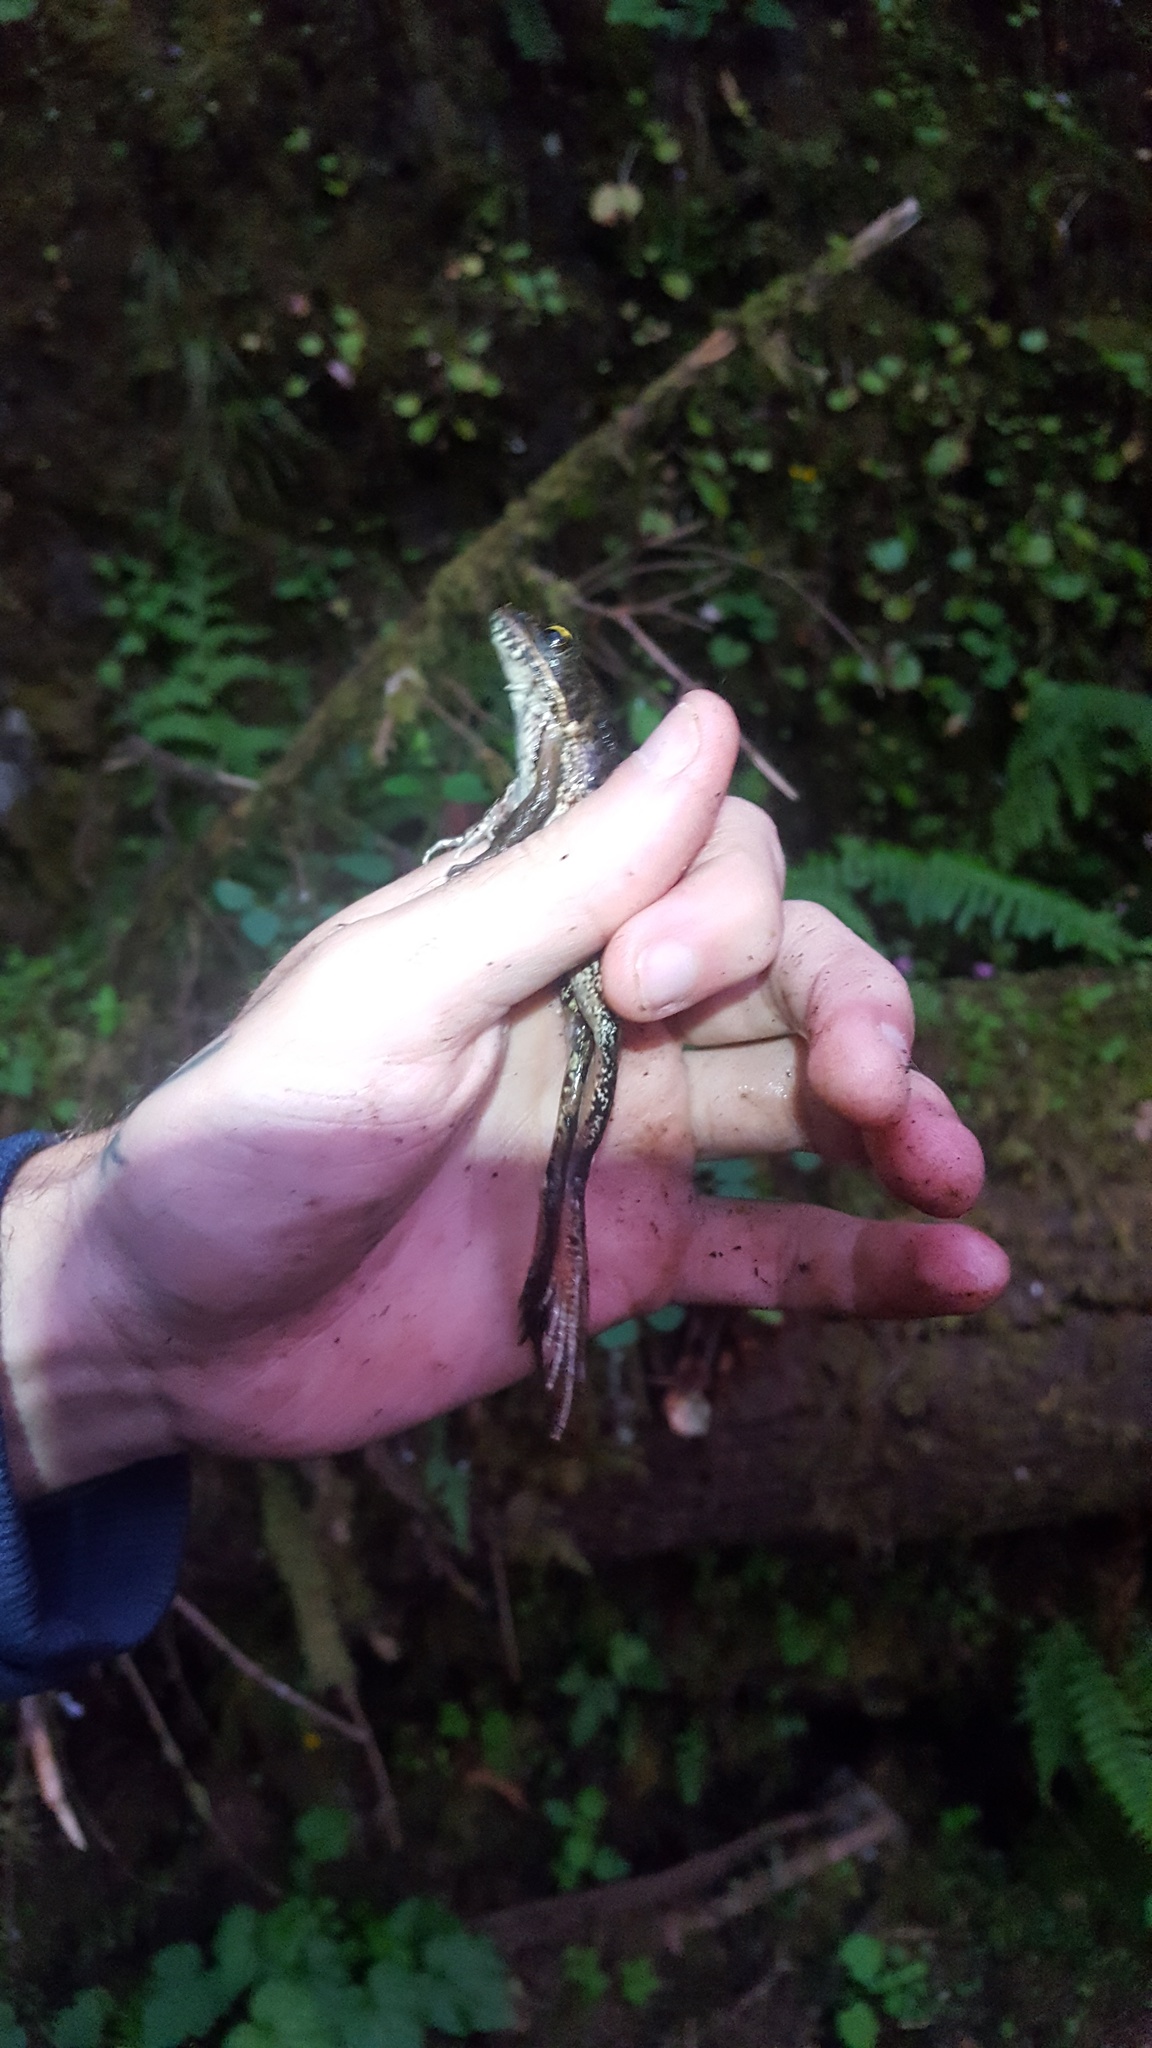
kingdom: Animalia
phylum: Chordata
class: Amphibia
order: Anura
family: Ranidae
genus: Rana
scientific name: Rana aurora
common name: Red-legged frog
